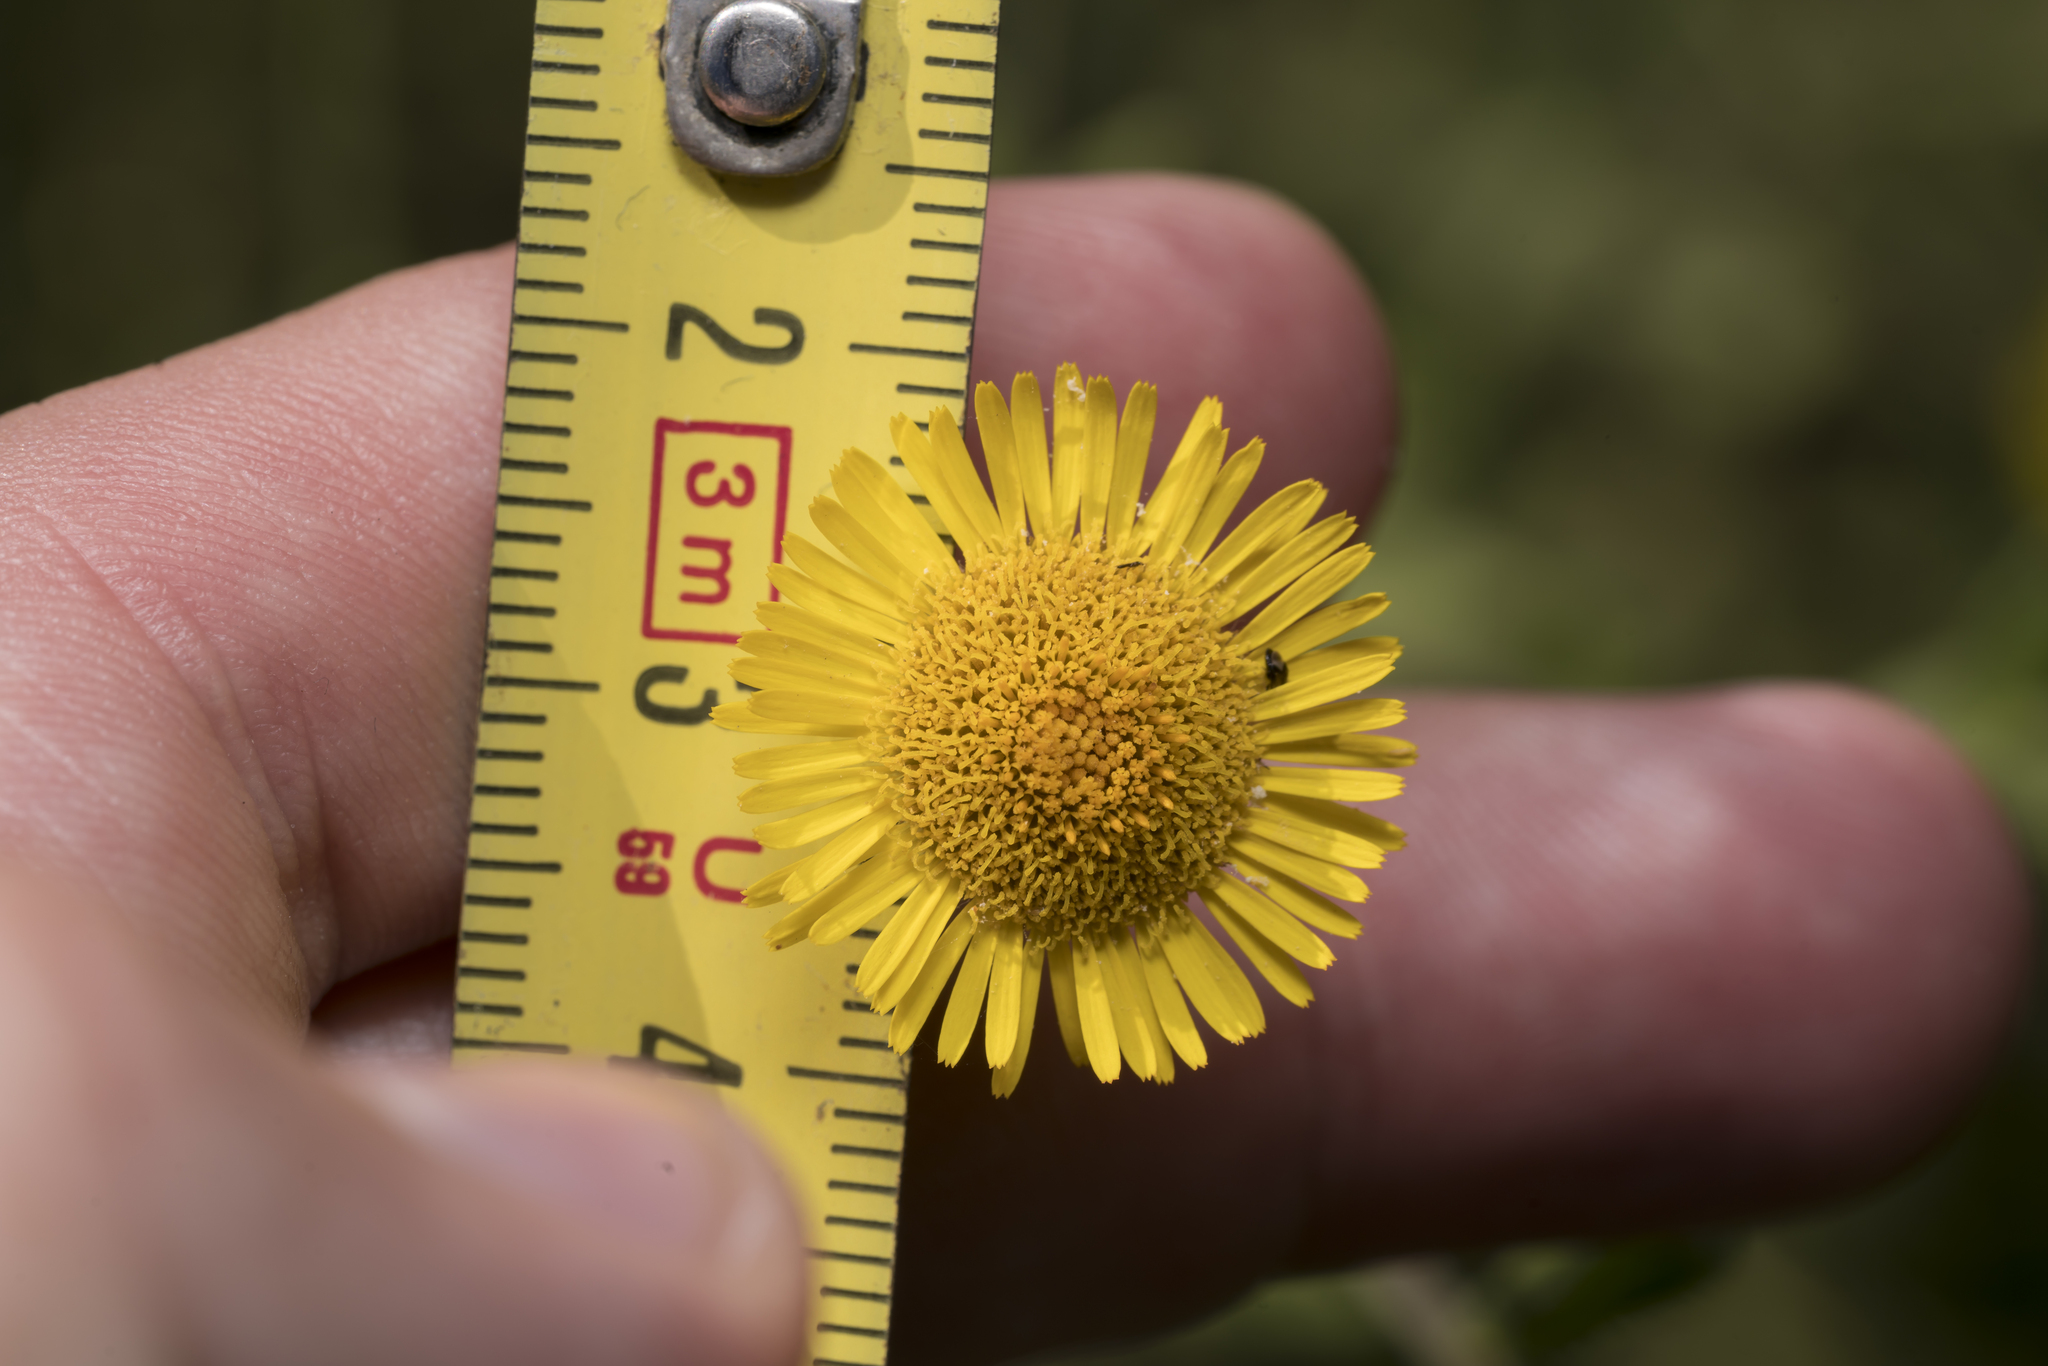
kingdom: Plantae
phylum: Tracheophyta
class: Magnoliopsida
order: Asterales
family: Asteraceae
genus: Pulicaria
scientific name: Pulicaria dysenterica
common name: Common fleabane
